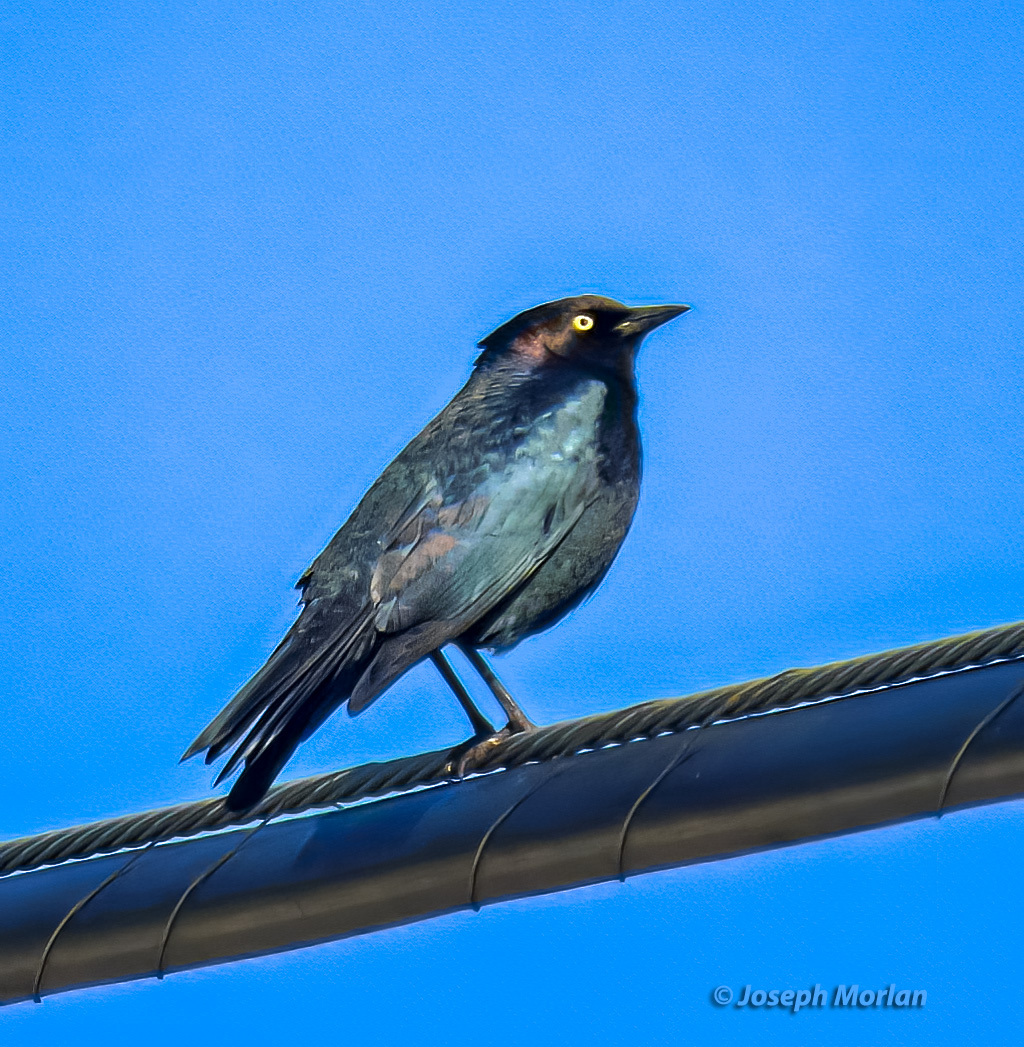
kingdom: Animalia
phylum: Chordata
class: Aves
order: Passeriformes
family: Icteridae
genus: Euphagus
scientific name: Euphagus cyanocephalus
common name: Brewer's blackbird
